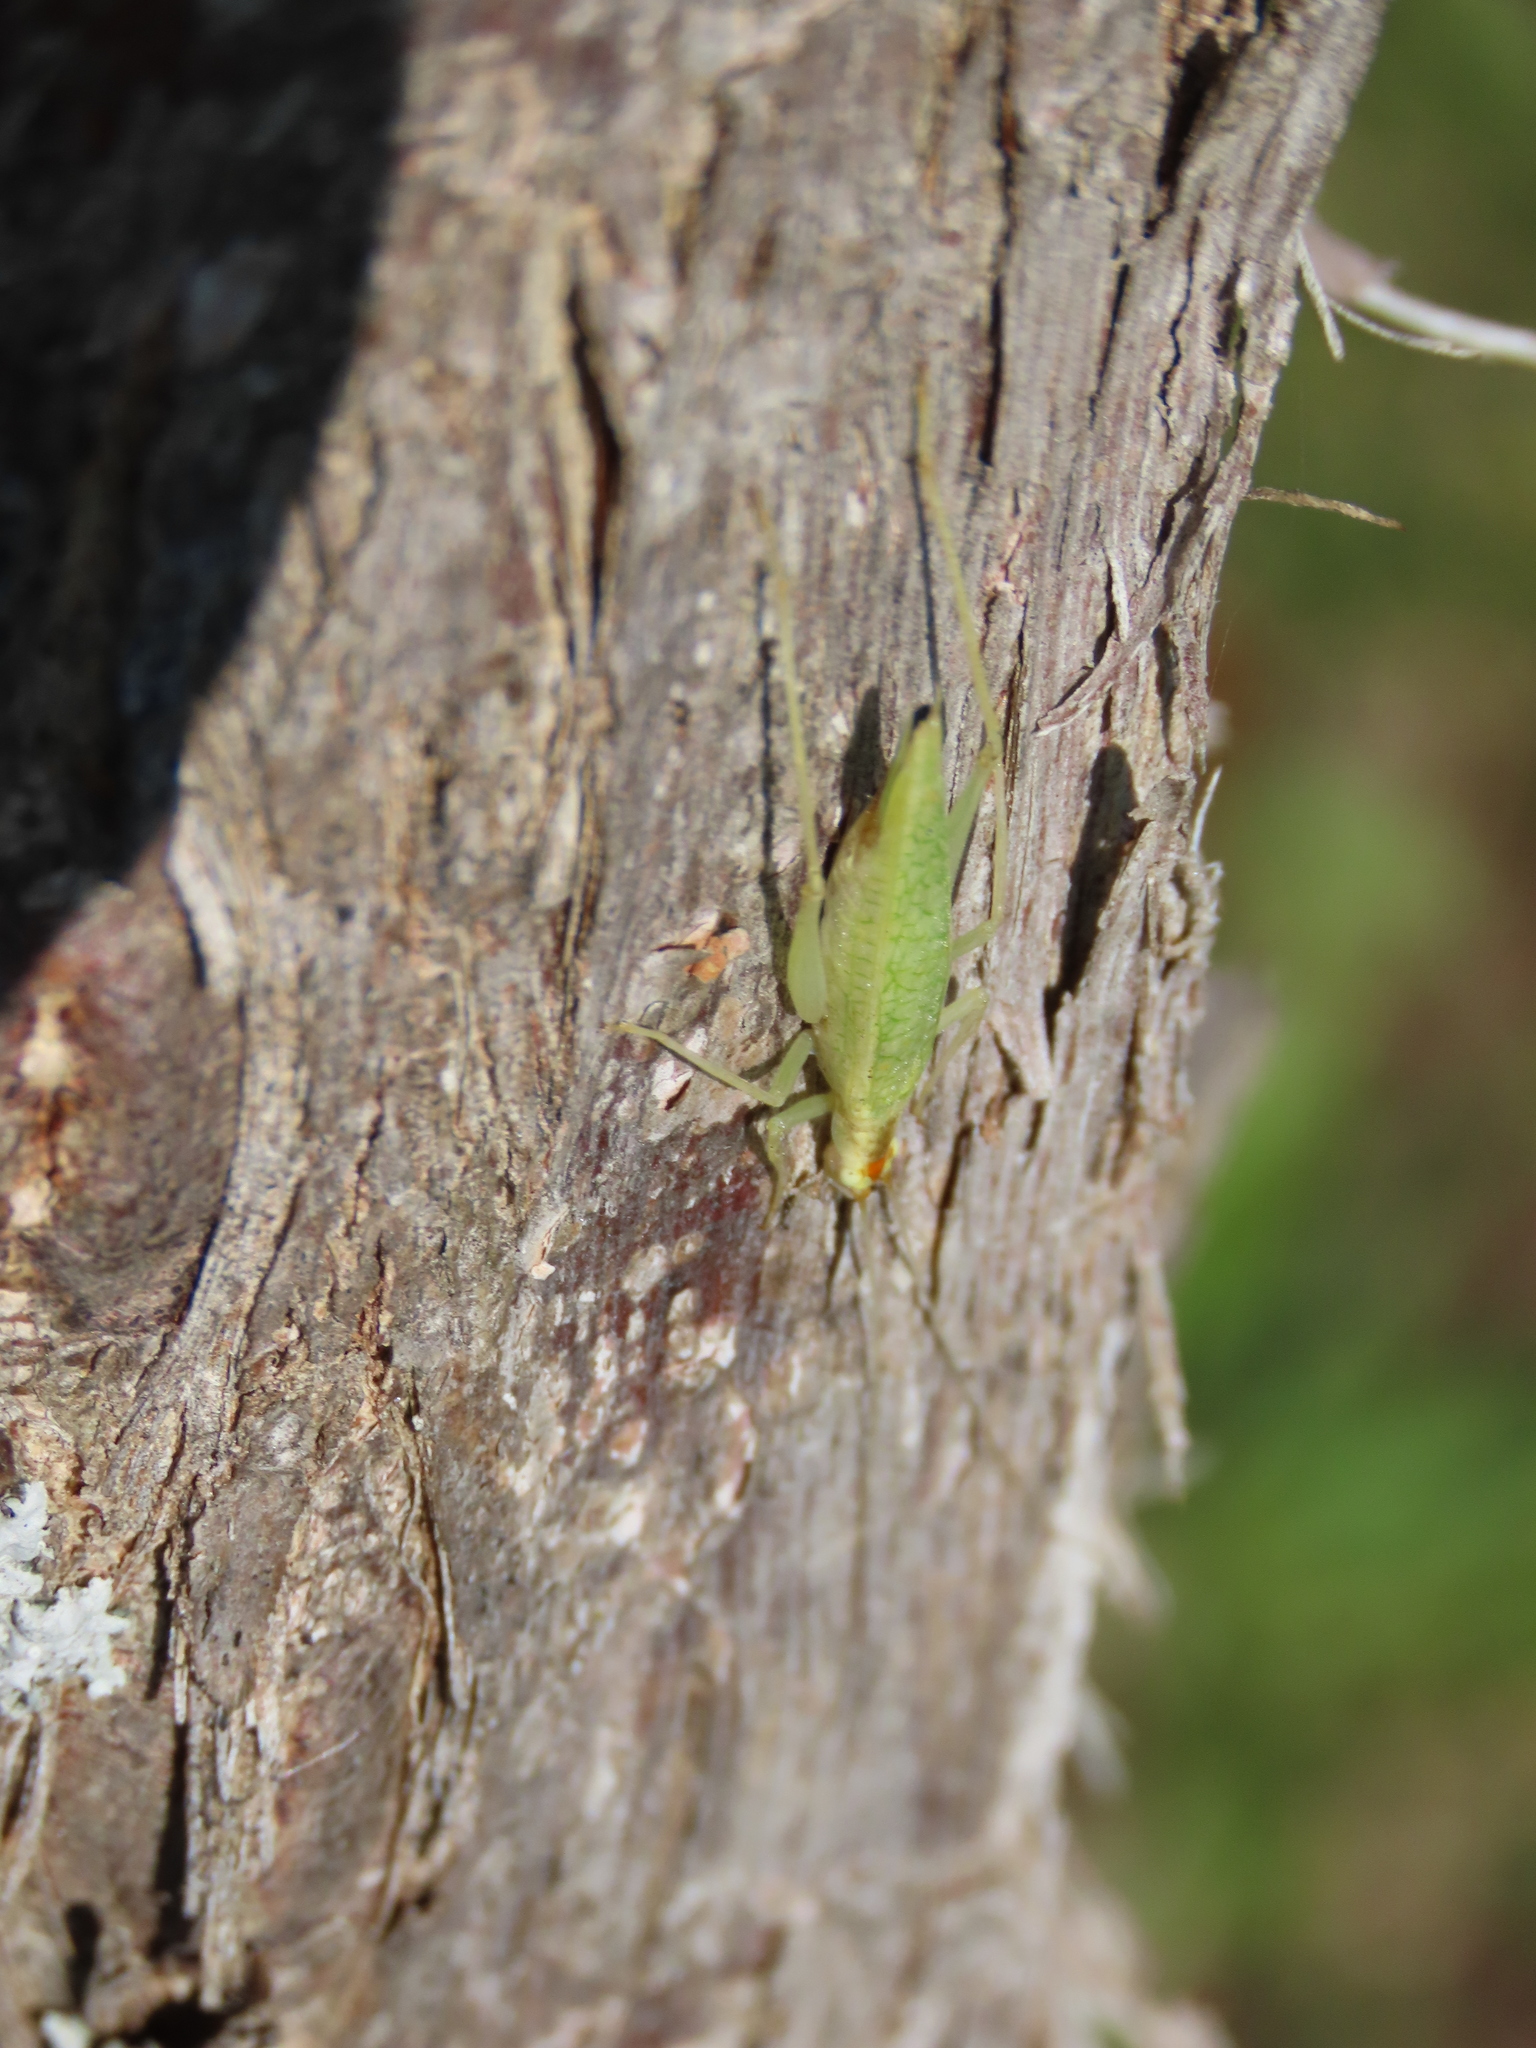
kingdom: Animalia
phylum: Arthropoda
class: Insecta
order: Orthoptera
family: Gryllidae
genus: Oecanthus
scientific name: Oecanthus niveus
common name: Narrow-winged tree cricket
